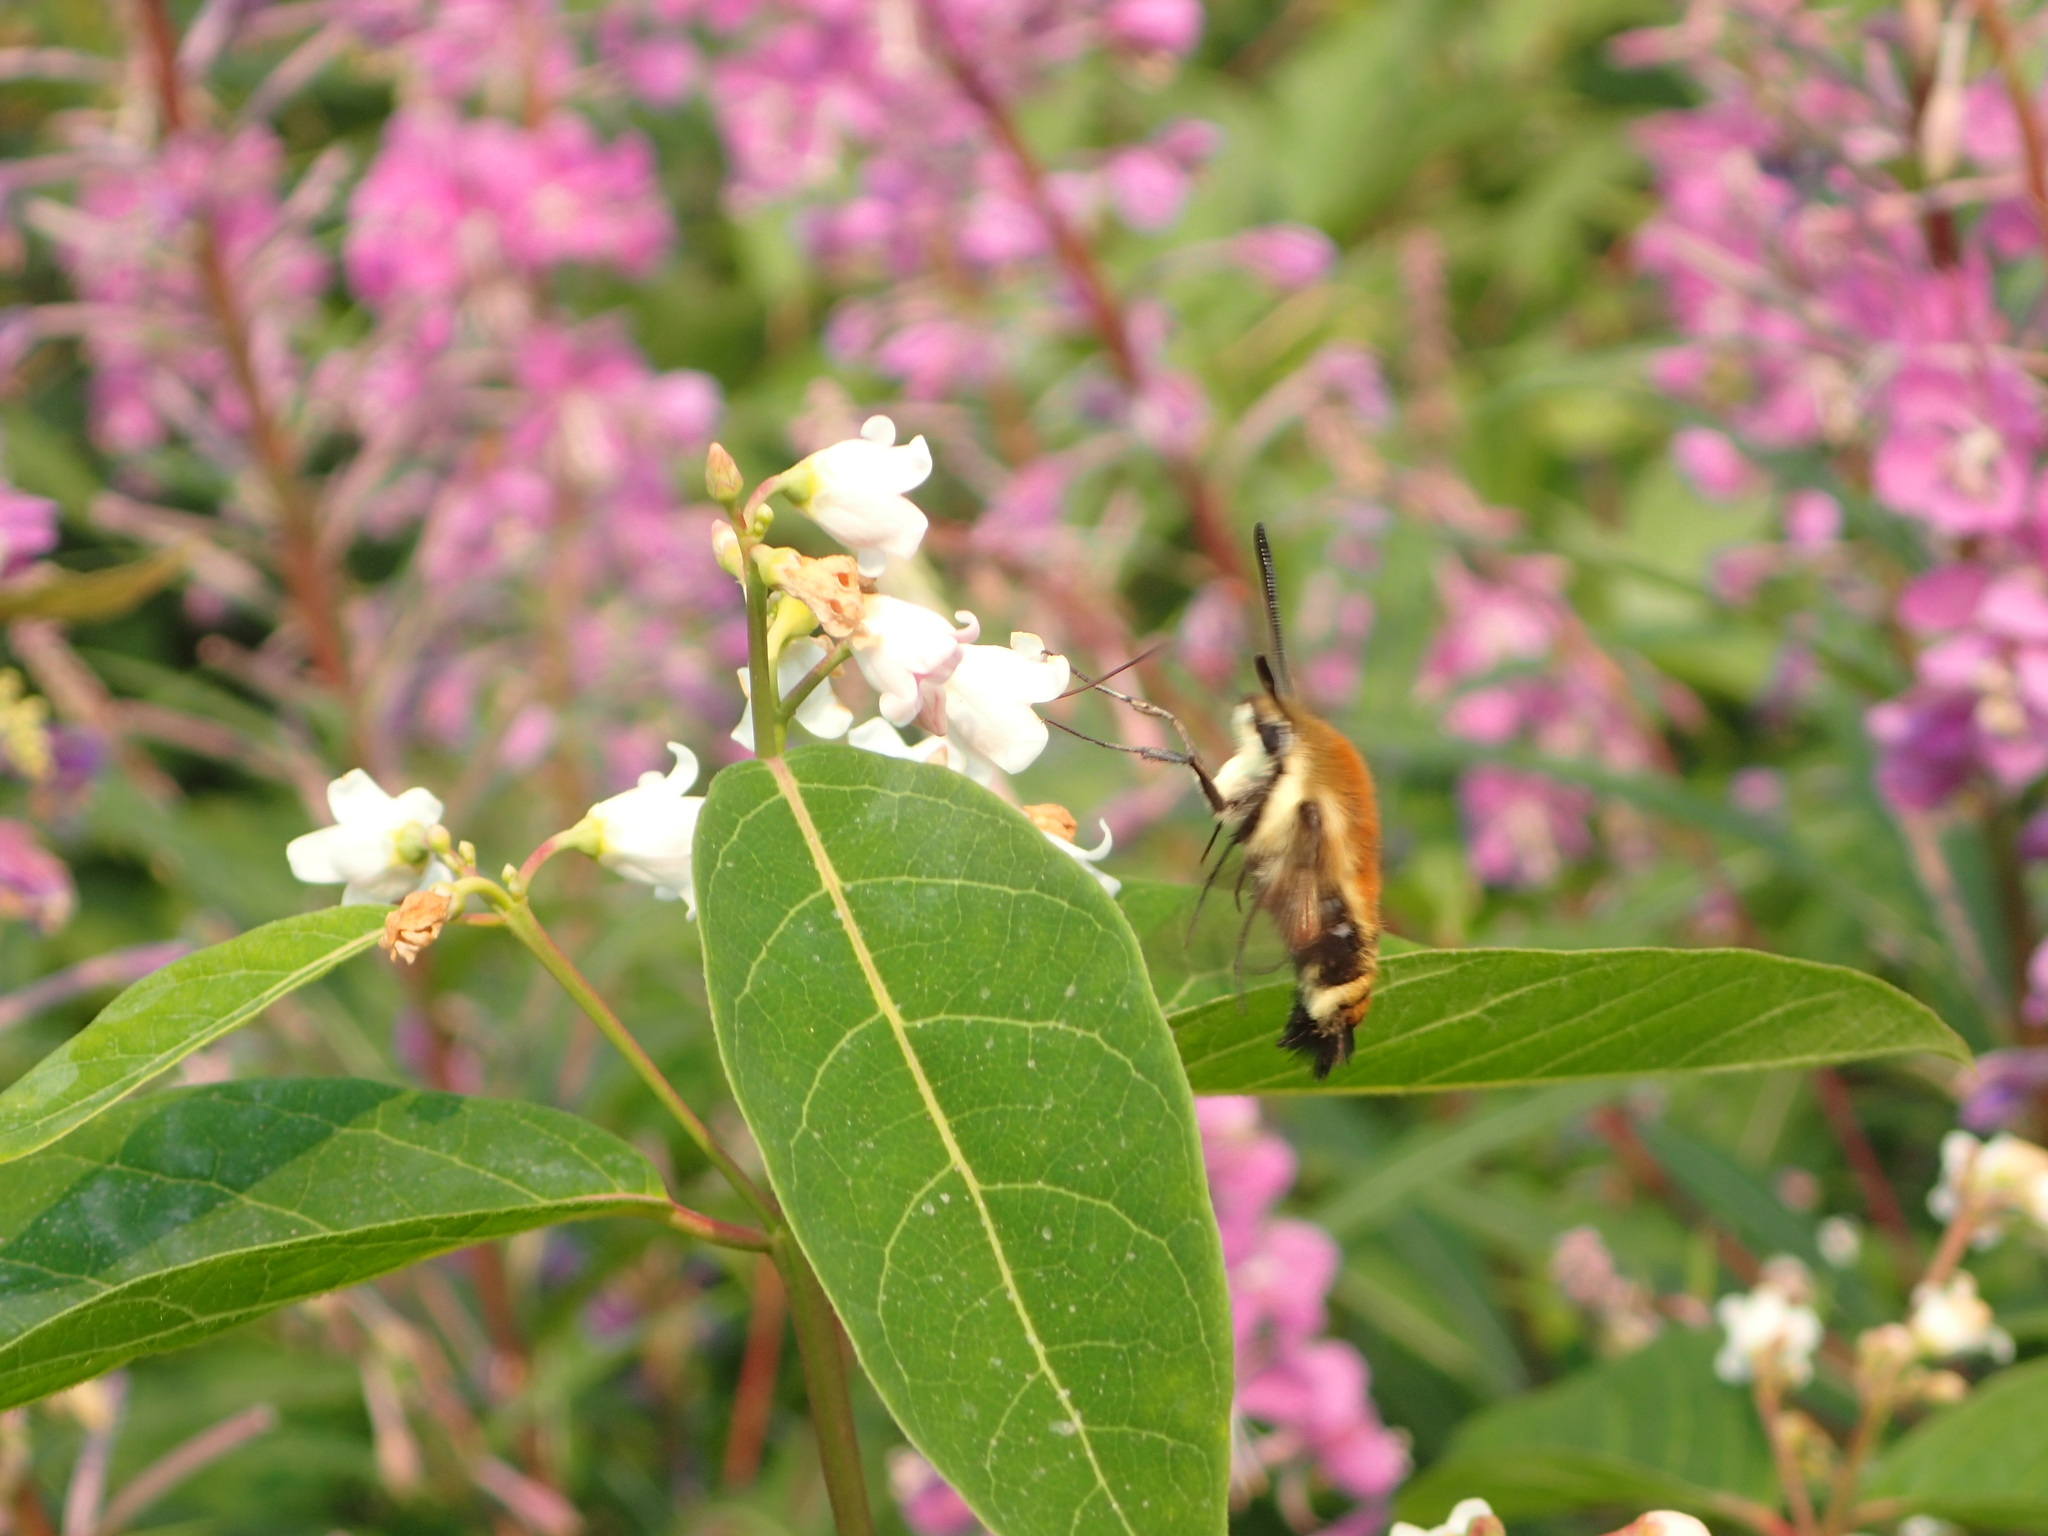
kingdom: Animalia
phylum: Arthropoda
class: Insecta
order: Lepidoptera
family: Sphingidae
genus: Hemaris
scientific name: Hemaris diffinis
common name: Bumblebee moth
